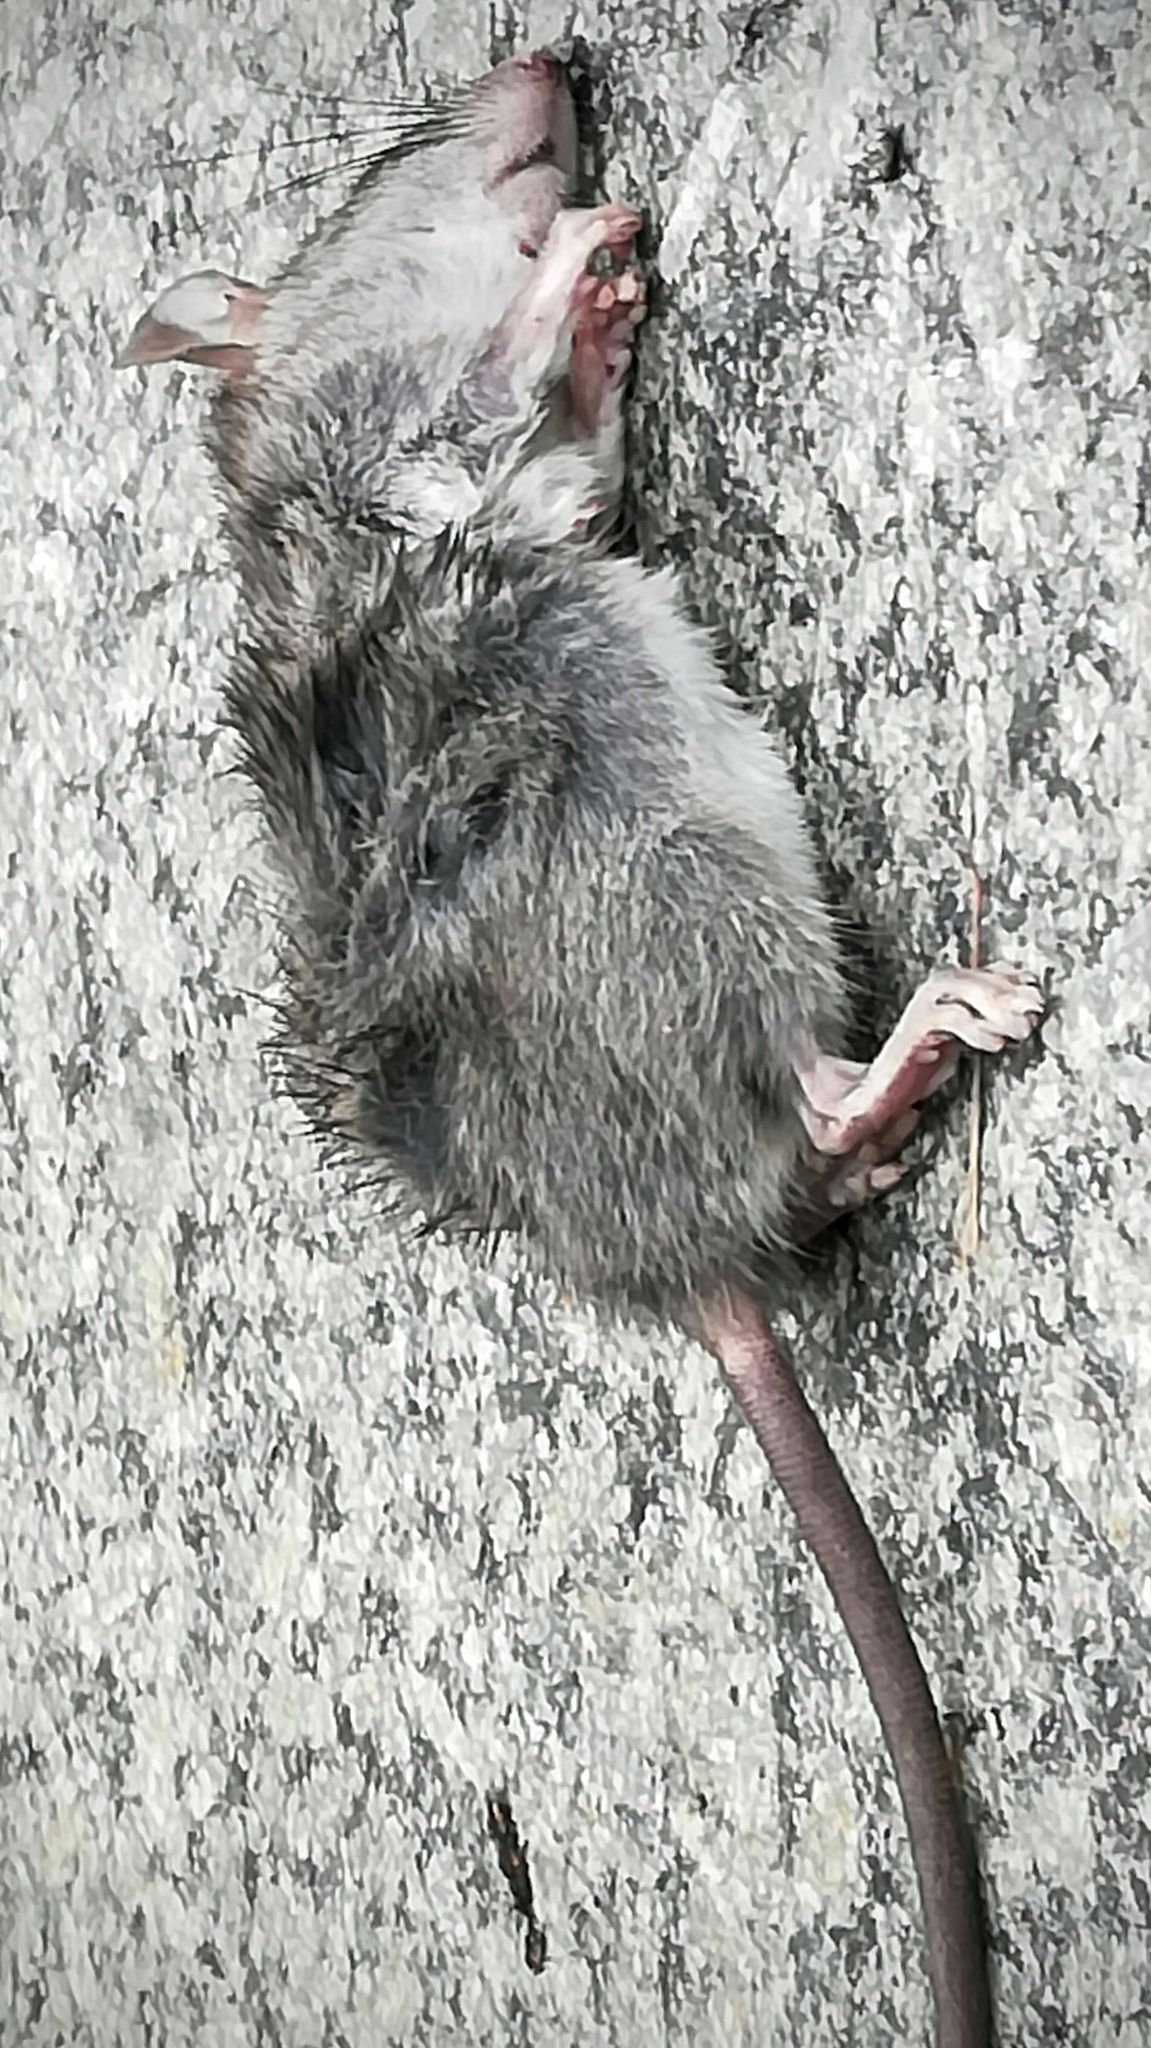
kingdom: Animalia
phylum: Chordata
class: Mammalia
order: Rodentia
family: Muridae
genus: Rattus
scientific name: Rattus rattus
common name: Black rat
